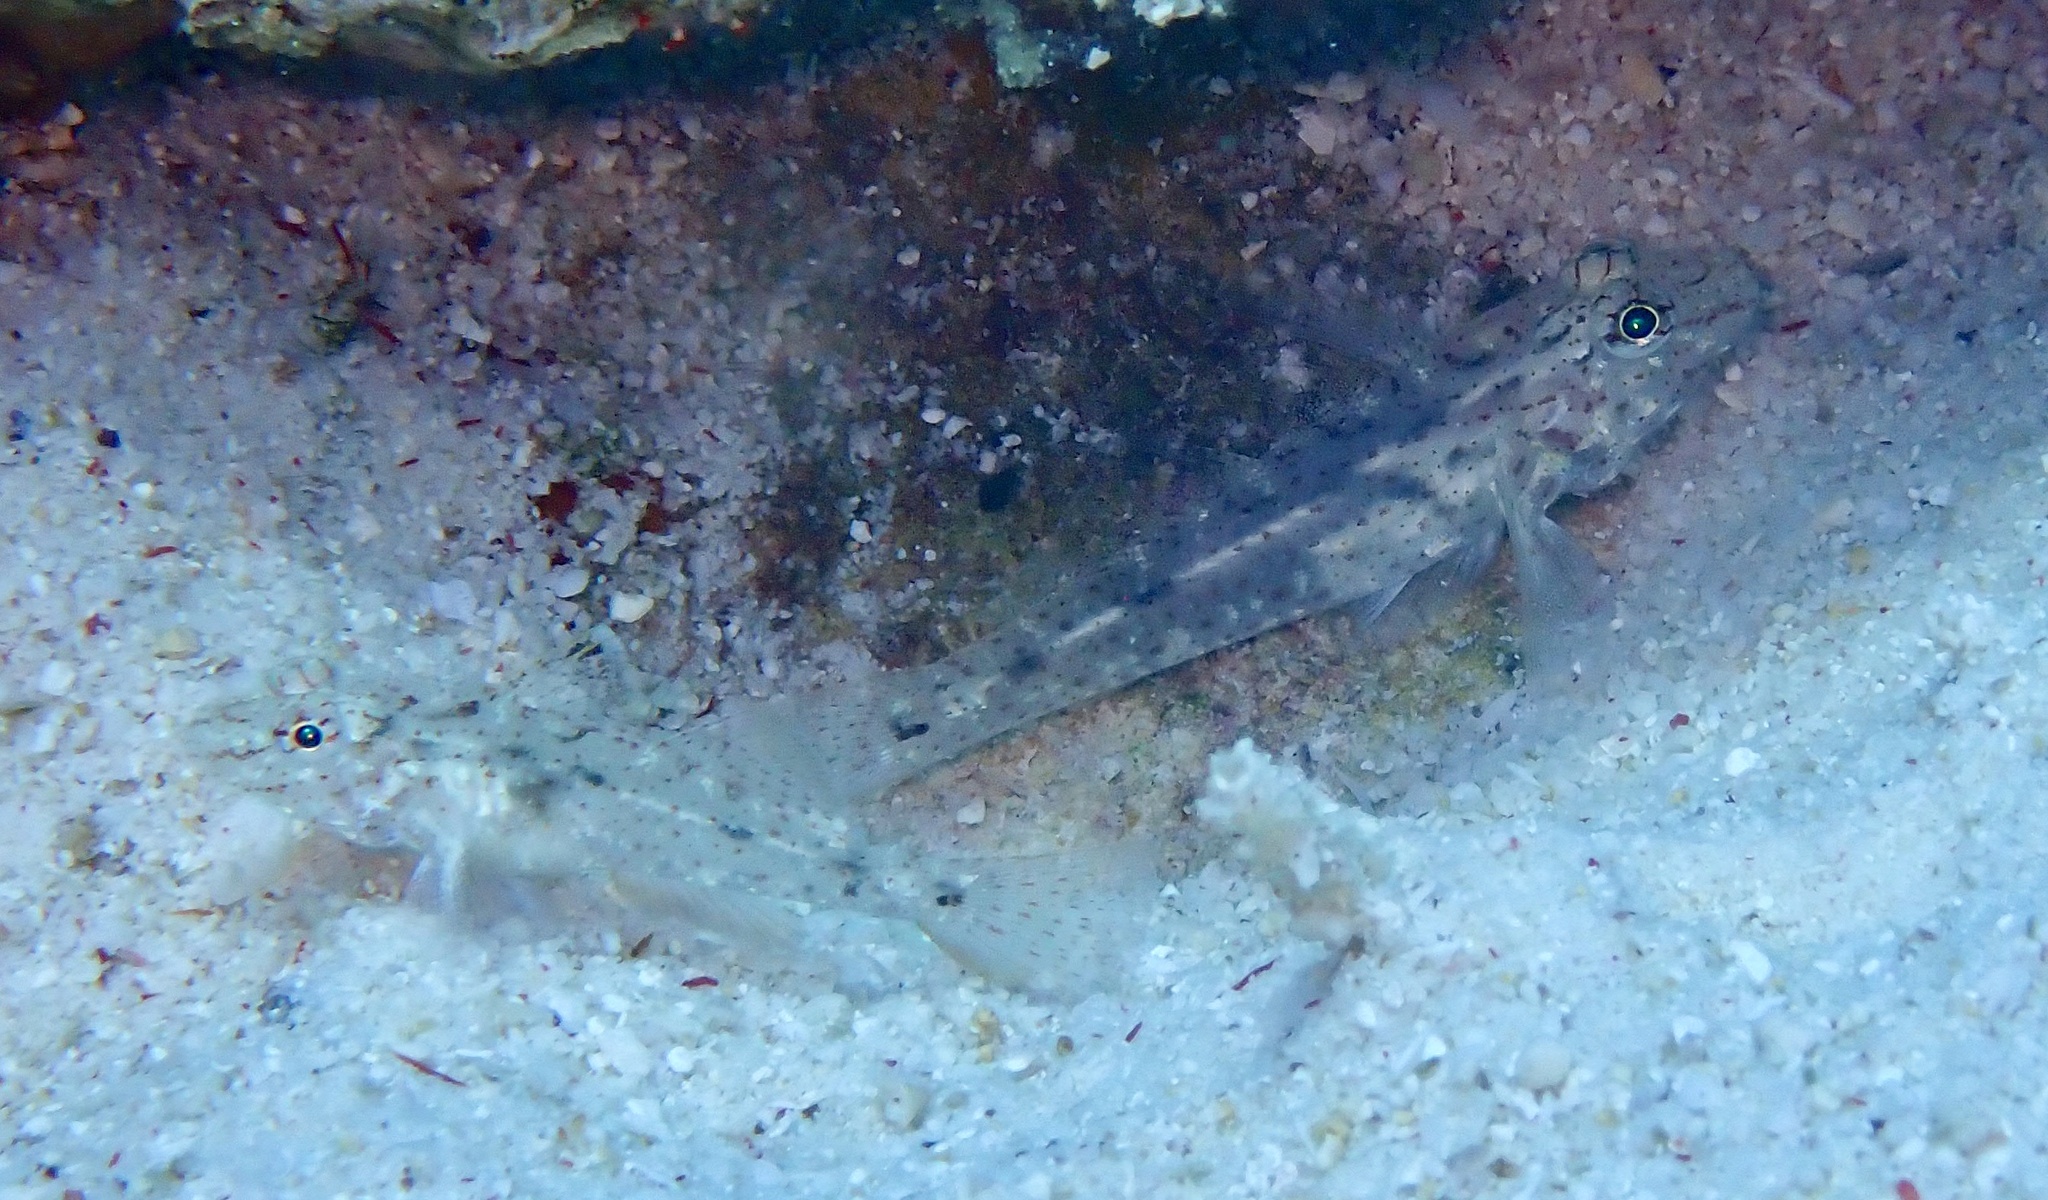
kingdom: Animalia
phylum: Chordata
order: Perciformes
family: Gobiidae
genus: Fusigobius
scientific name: Fusigobius neophytus
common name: Sand goby
